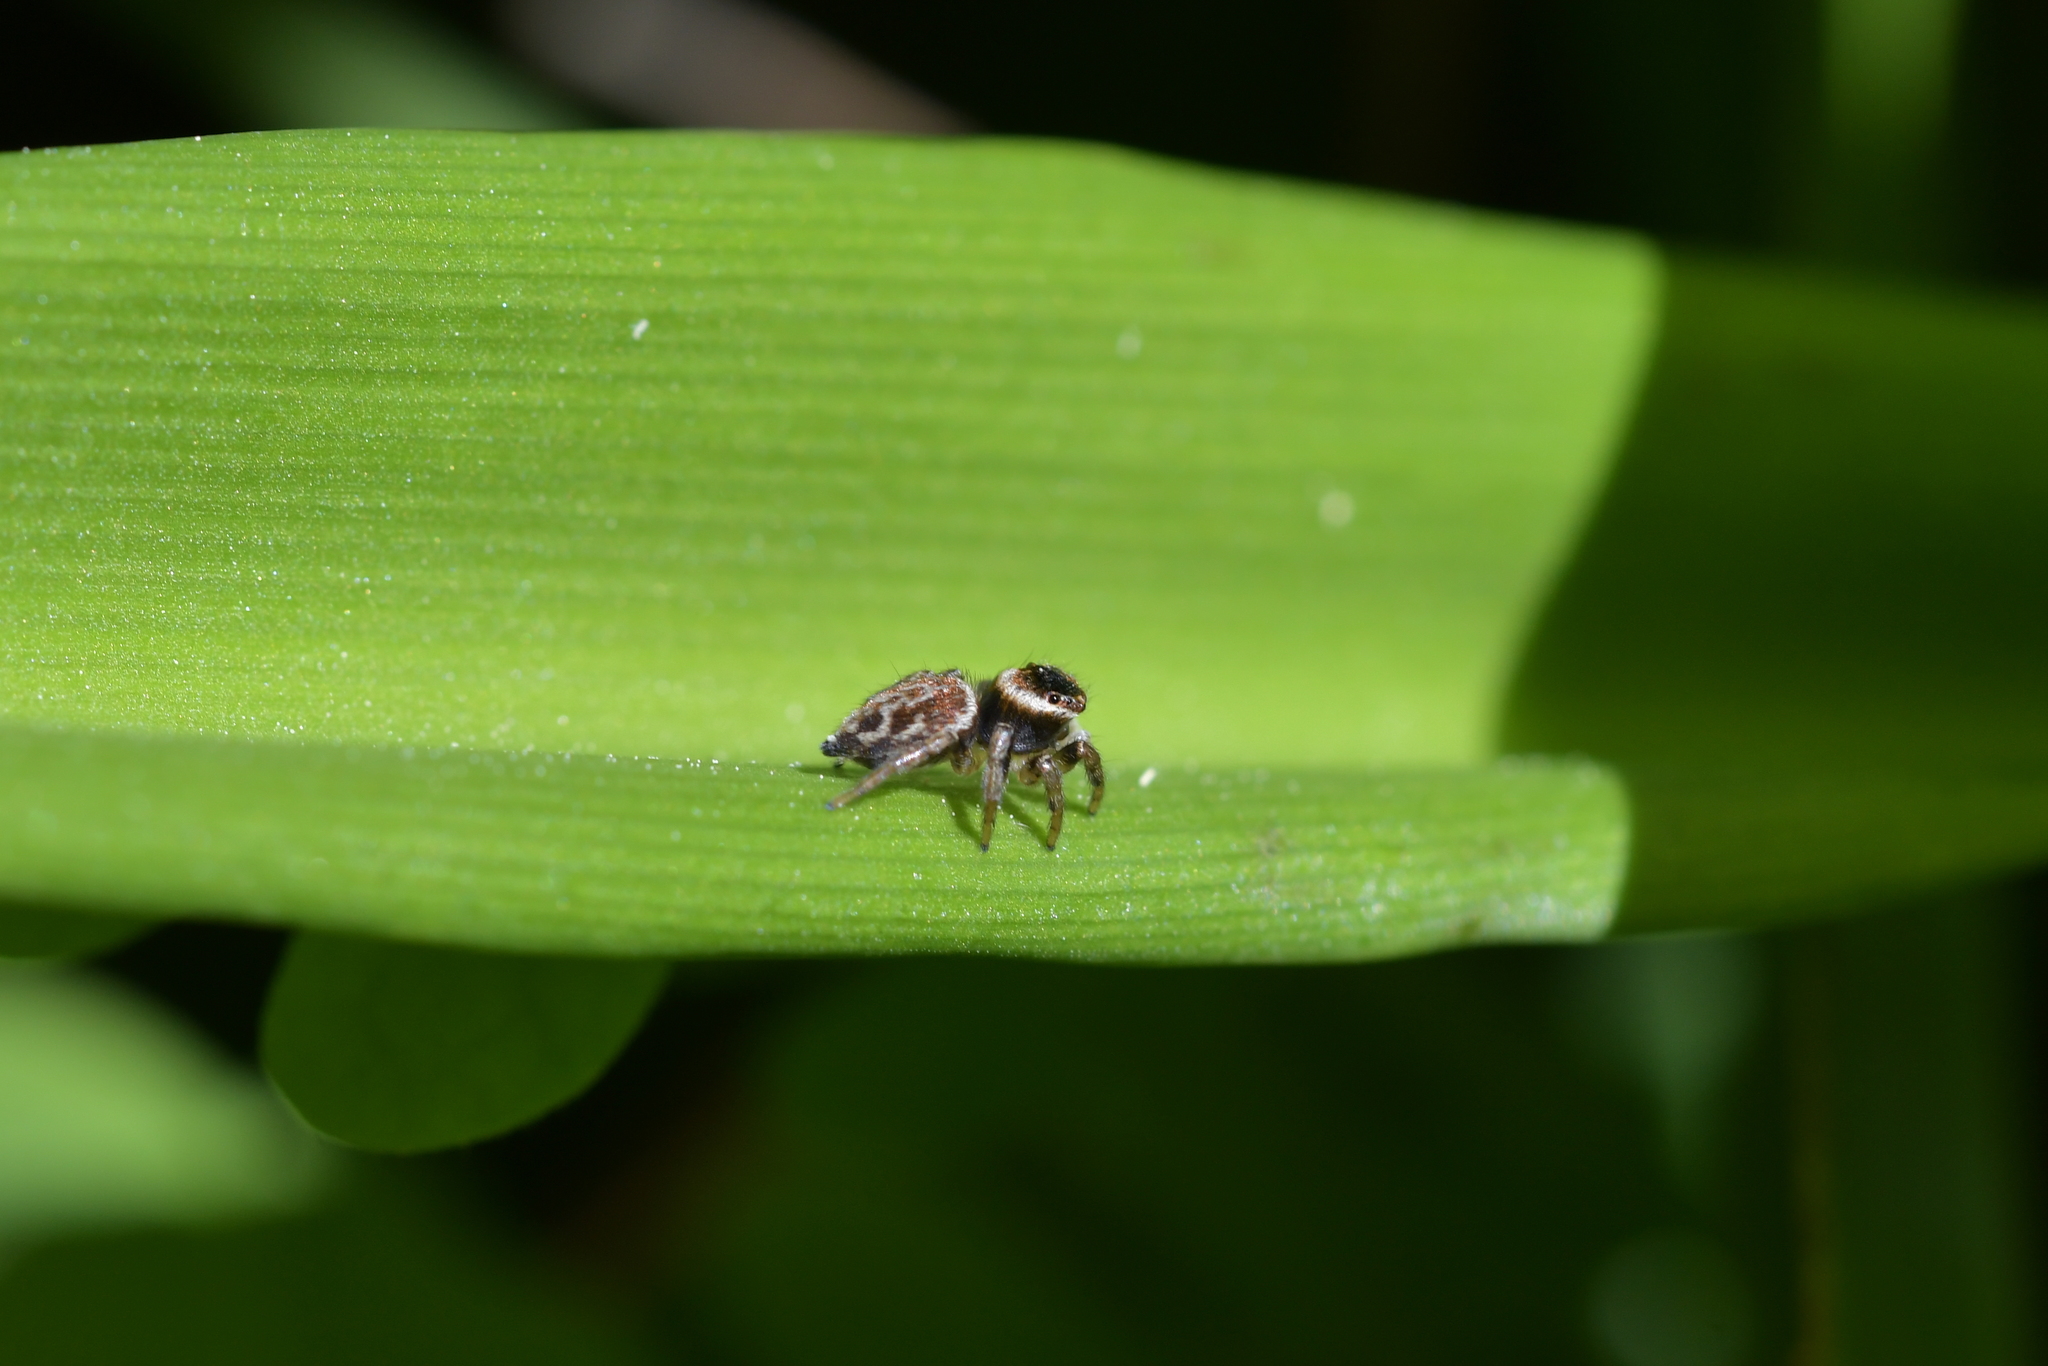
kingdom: Animalia
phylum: Arthropoda
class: Arachnida
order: Araneae
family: Salticidae
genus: Maratus
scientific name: Maratus griseus
